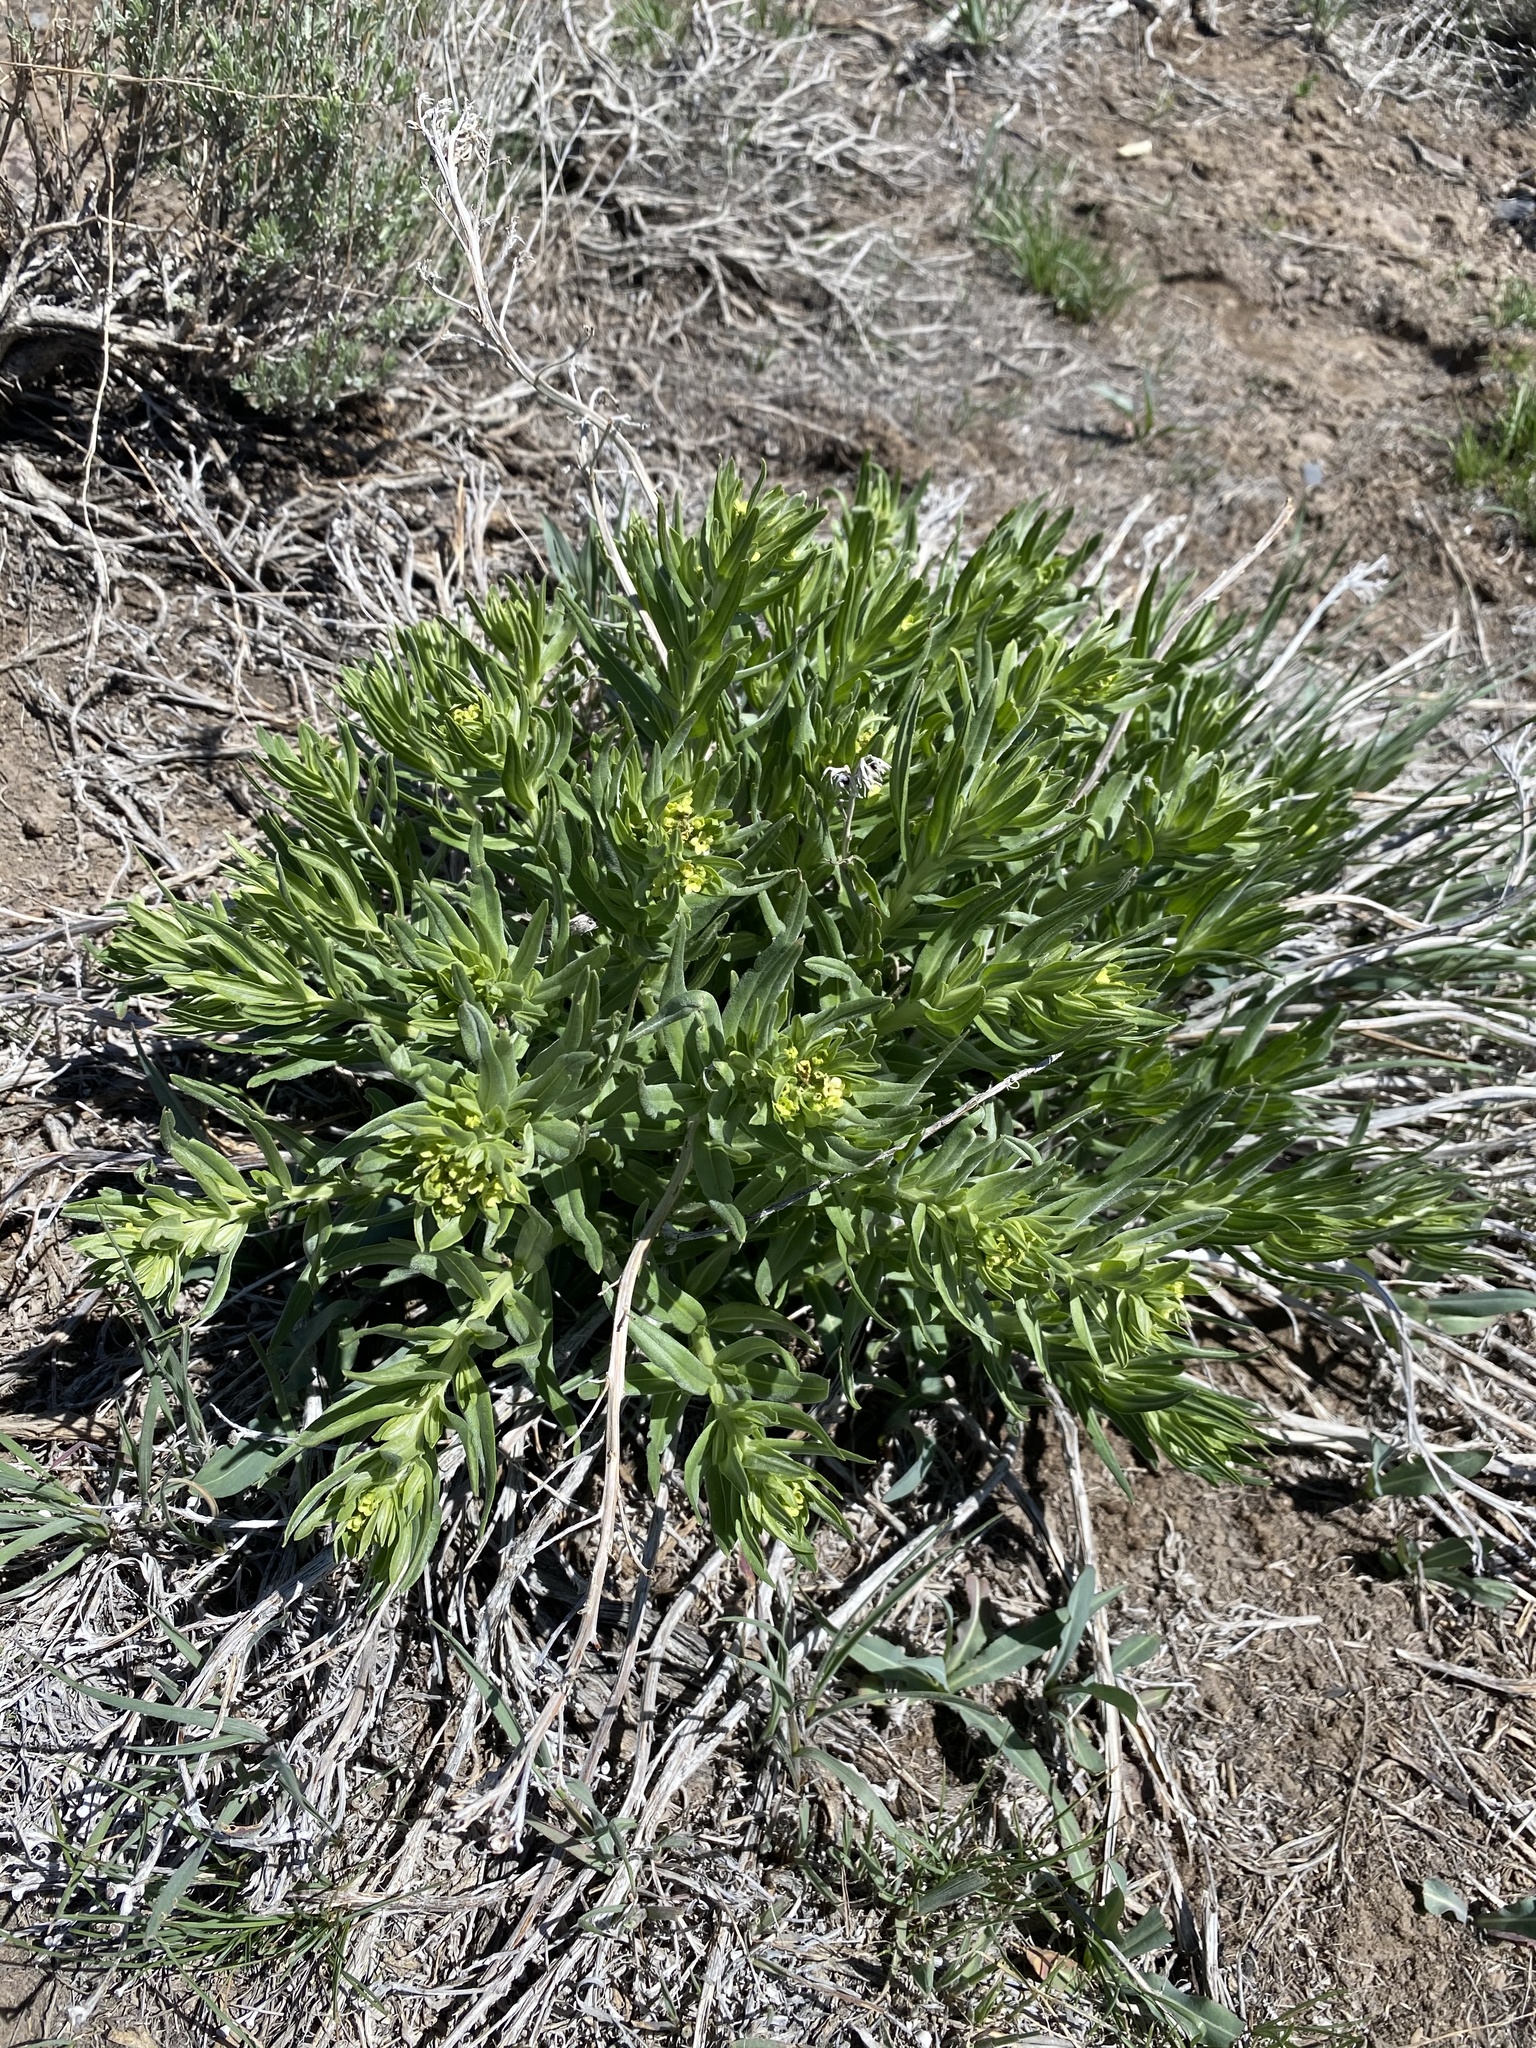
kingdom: Plantae
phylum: Tracheophyta
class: Magnoliopsida
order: Boraginales
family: Boraginaceae
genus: Lithospermum
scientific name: Lithospermum ruderale
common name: Western gromwell
